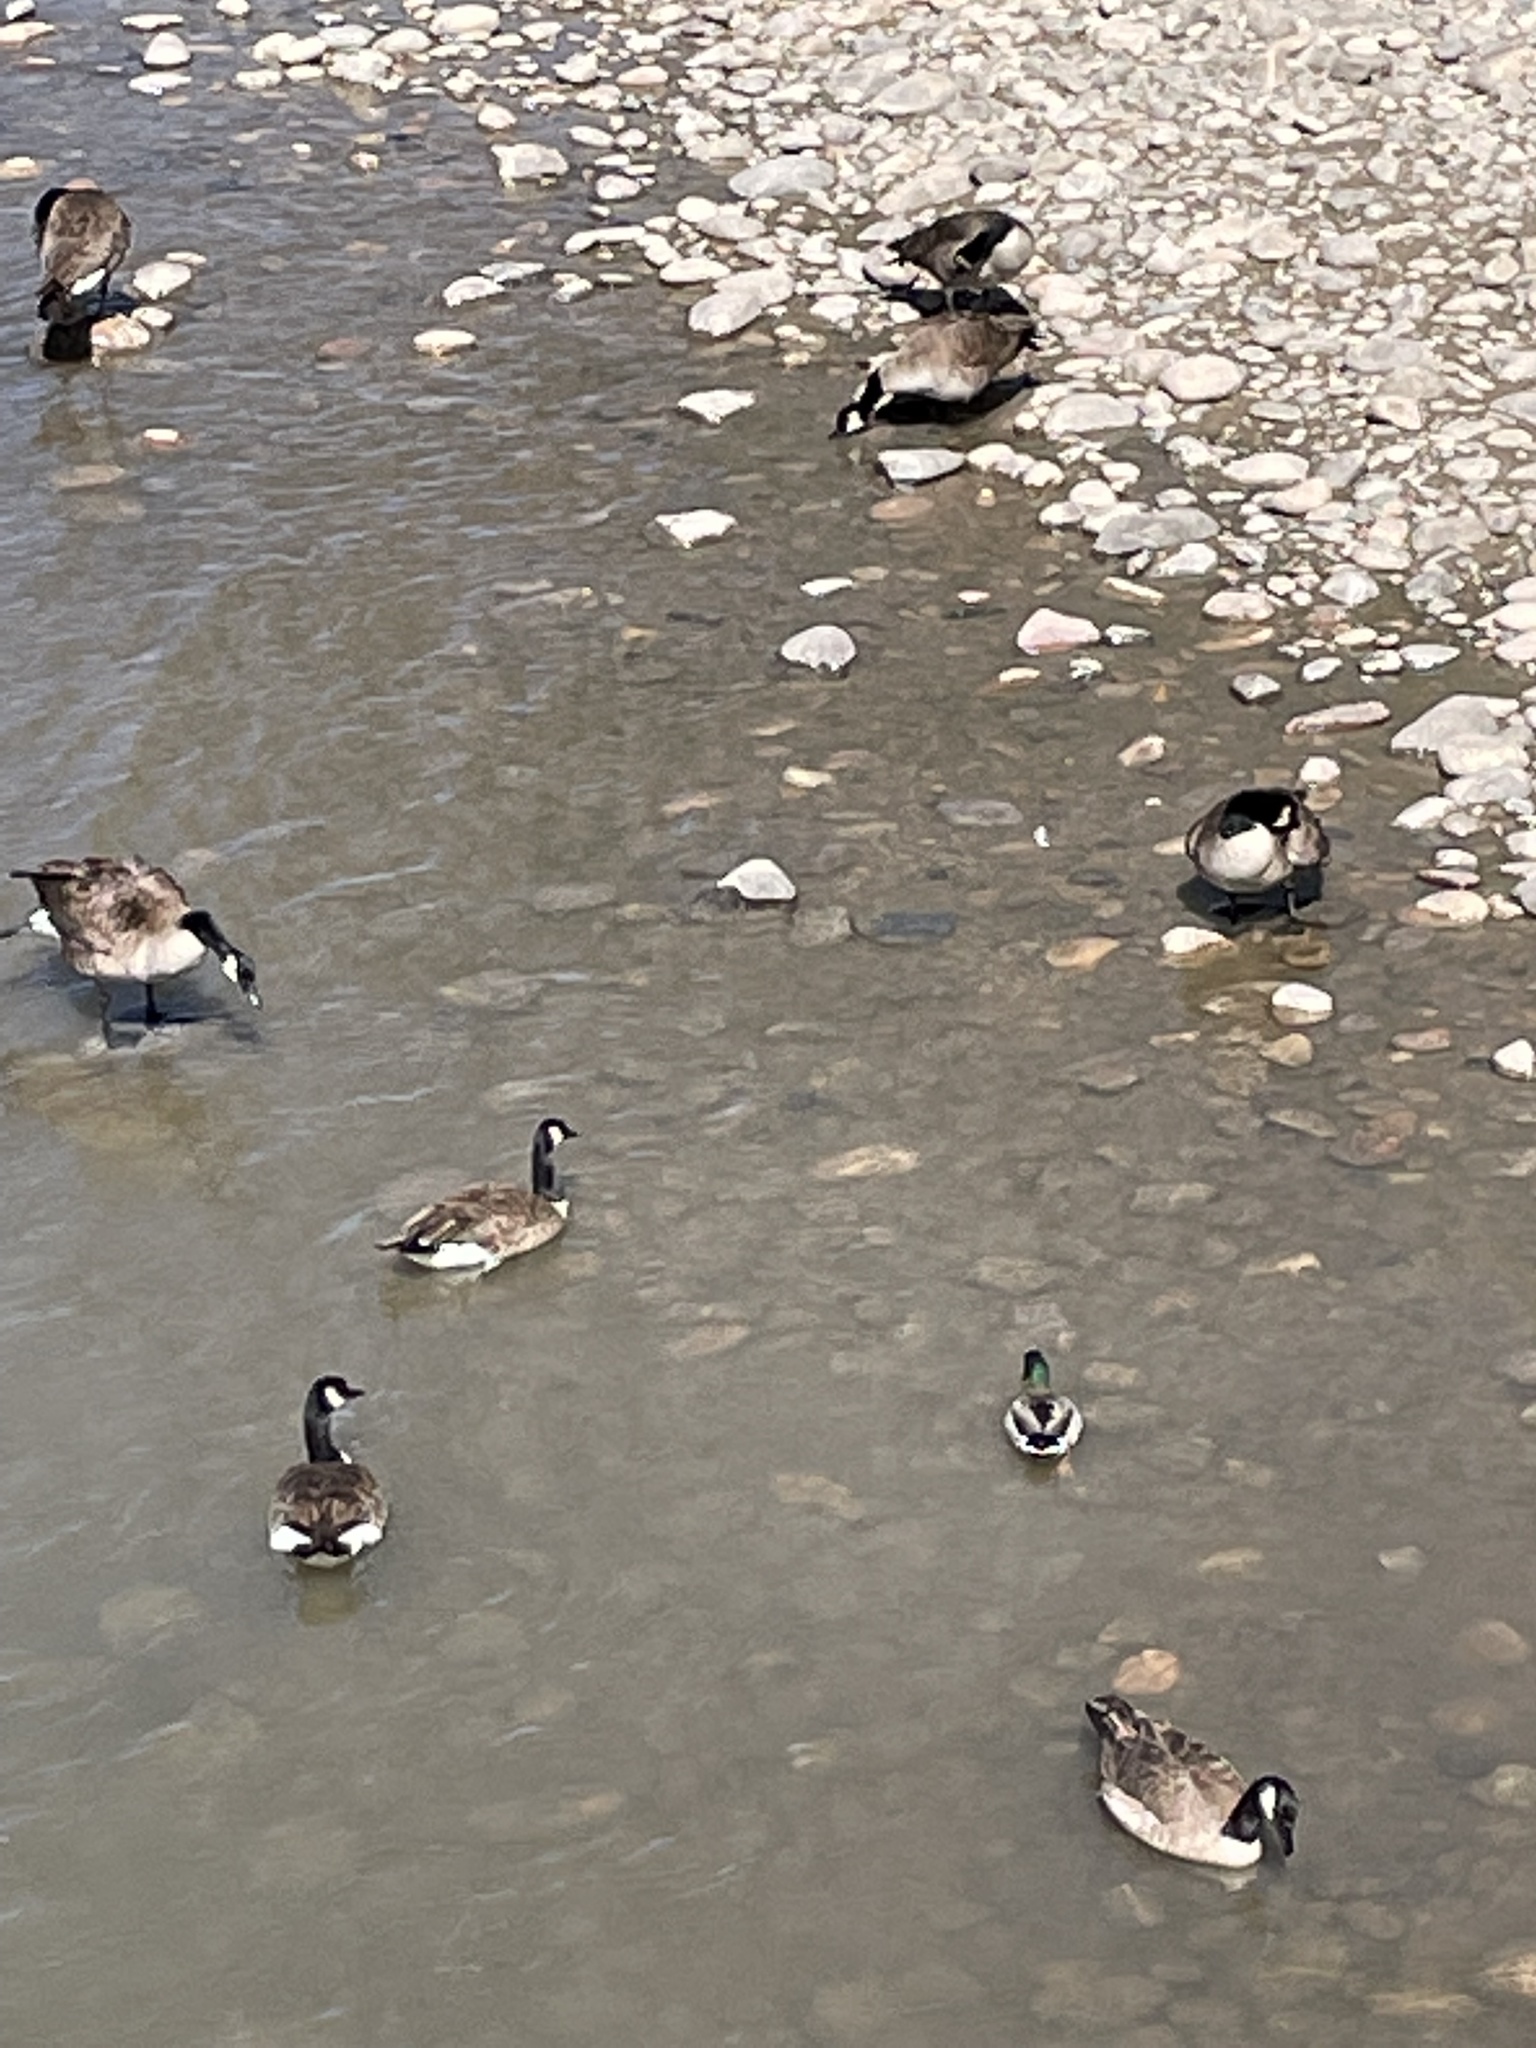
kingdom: Animalia
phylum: Chordata
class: Aves
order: Anseriformes
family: Anatidae
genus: Branta
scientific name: Branta canadensis
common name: Canada goose
